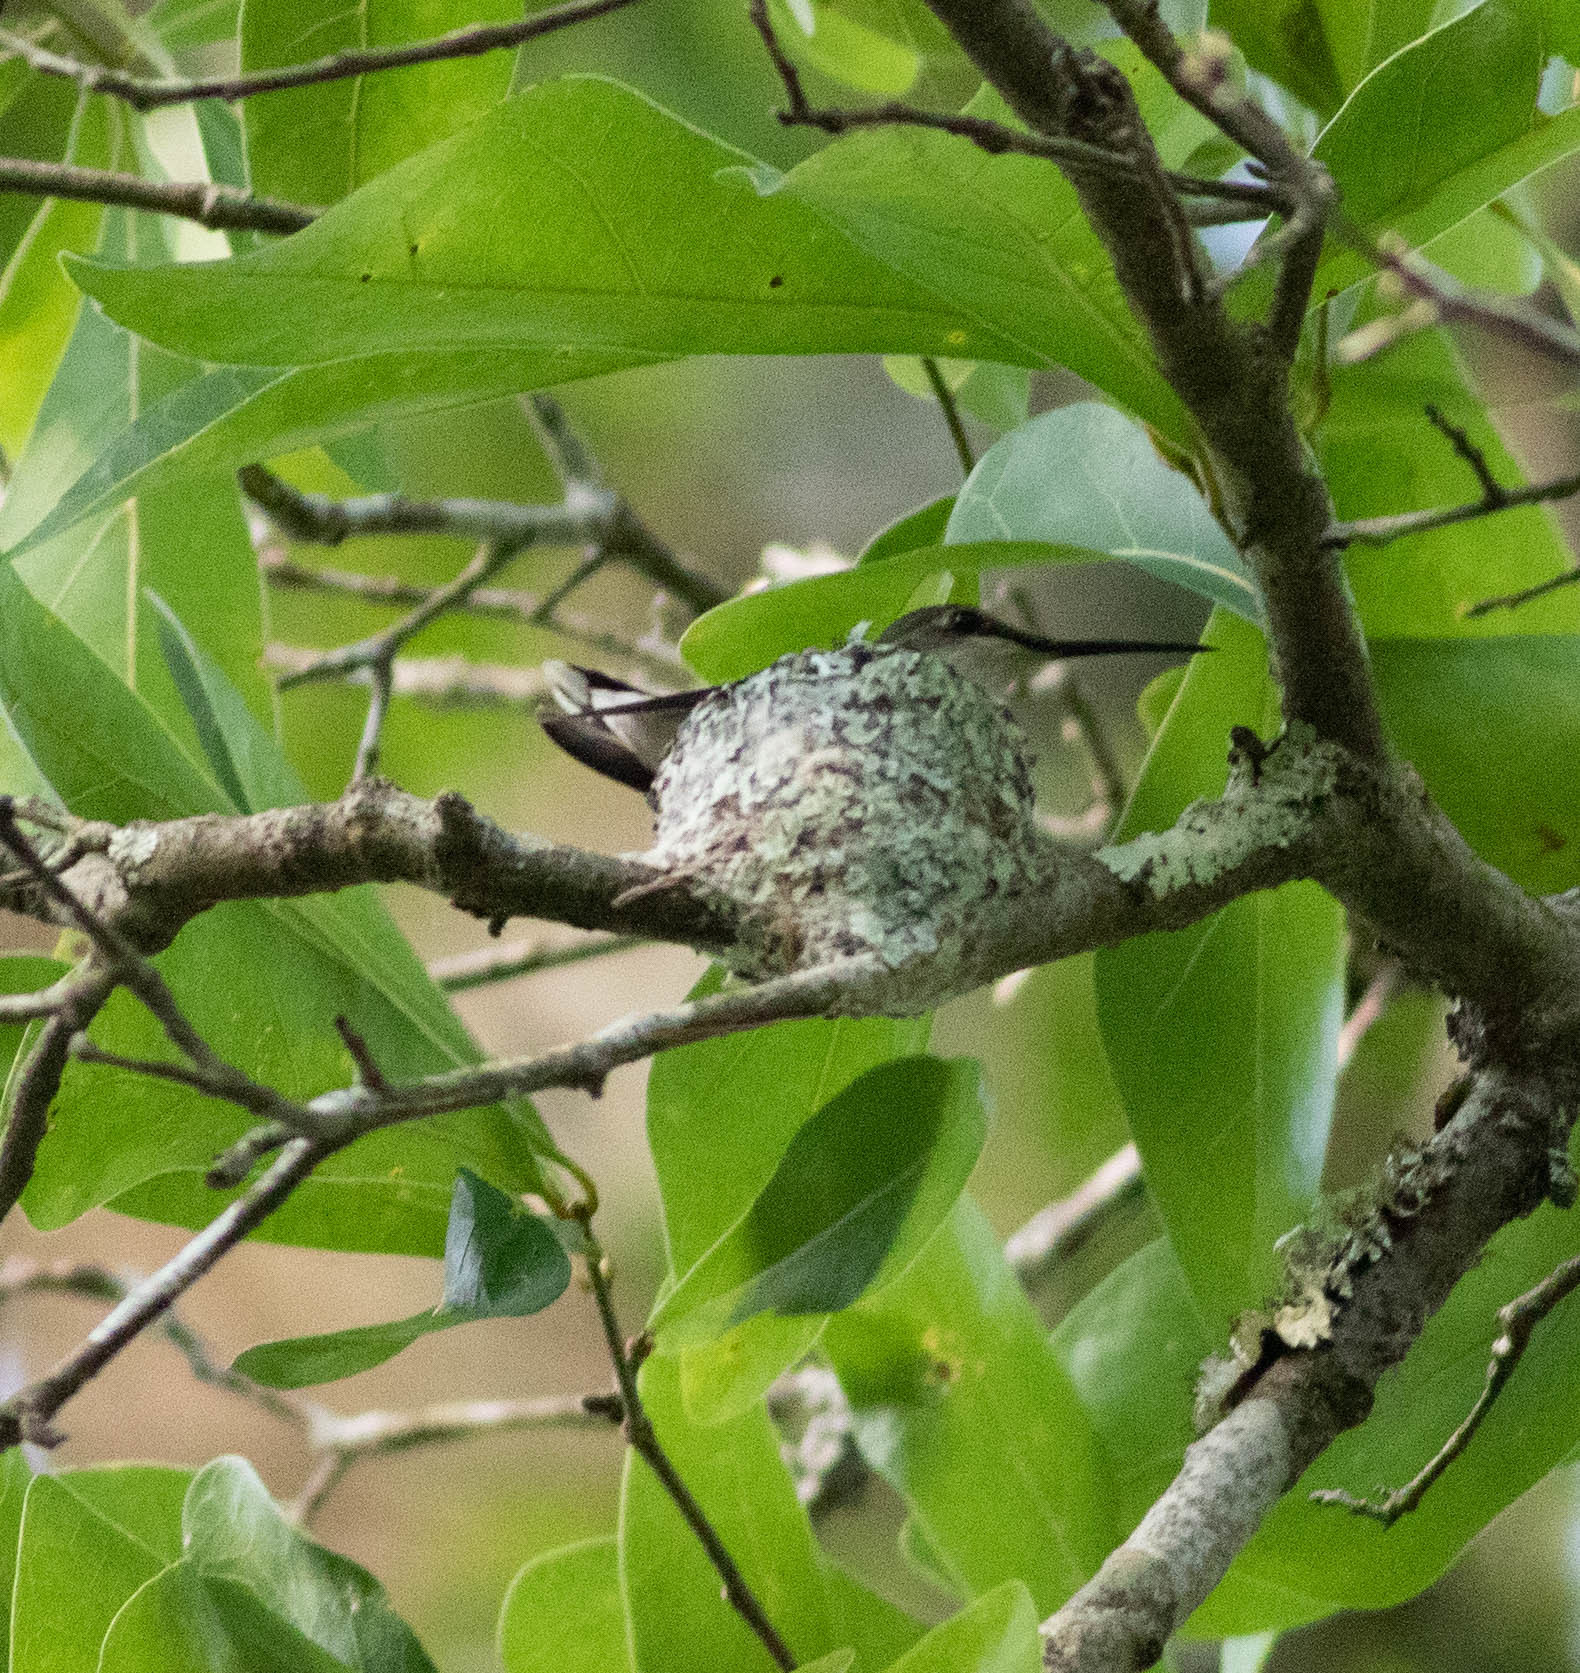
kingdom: Animalia
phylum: Chordata
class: Aves
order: Apodiformes
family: Trochilidae
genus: Archilochus
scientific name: Archilochus colubris
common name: Ruby-throated hummingbird
